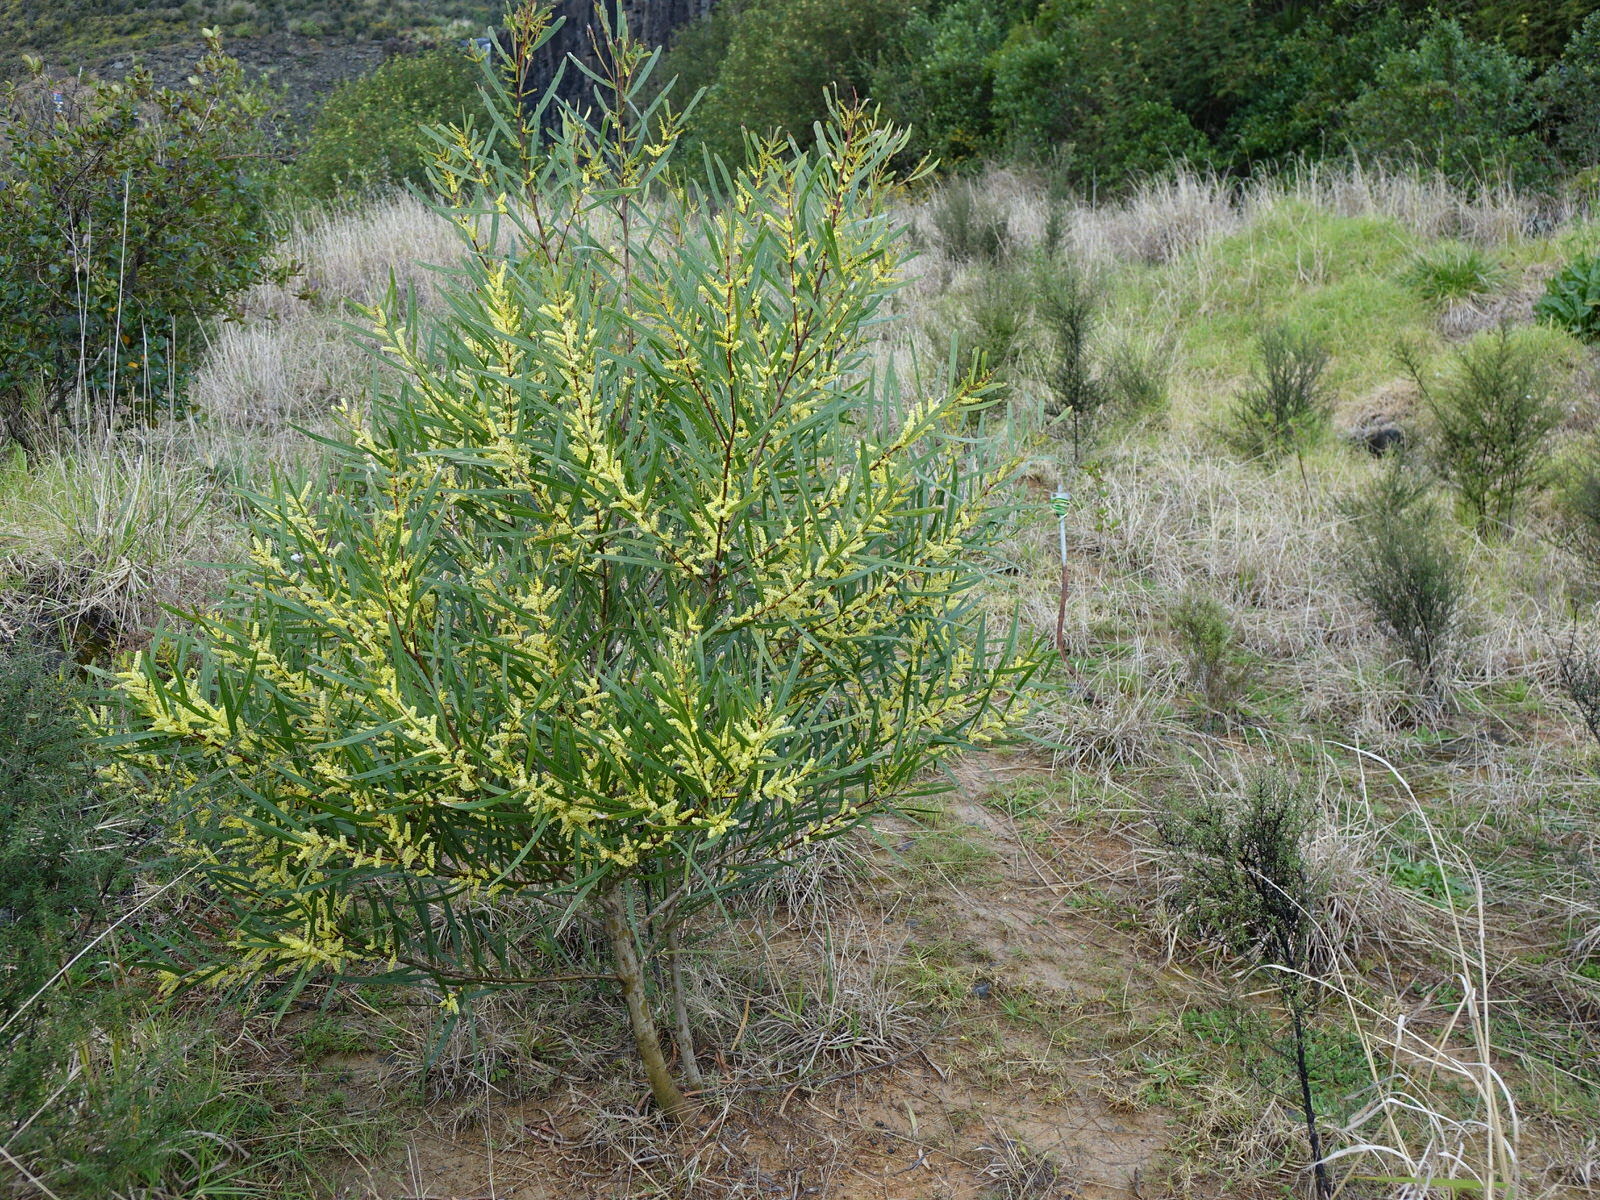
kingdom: Plantae
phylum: Tracheophyta
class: Magnoliopsida
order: Fabales
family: Fabaceae
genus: Acacia
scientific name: Acacia longifolia
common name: Sydney golden wattle
